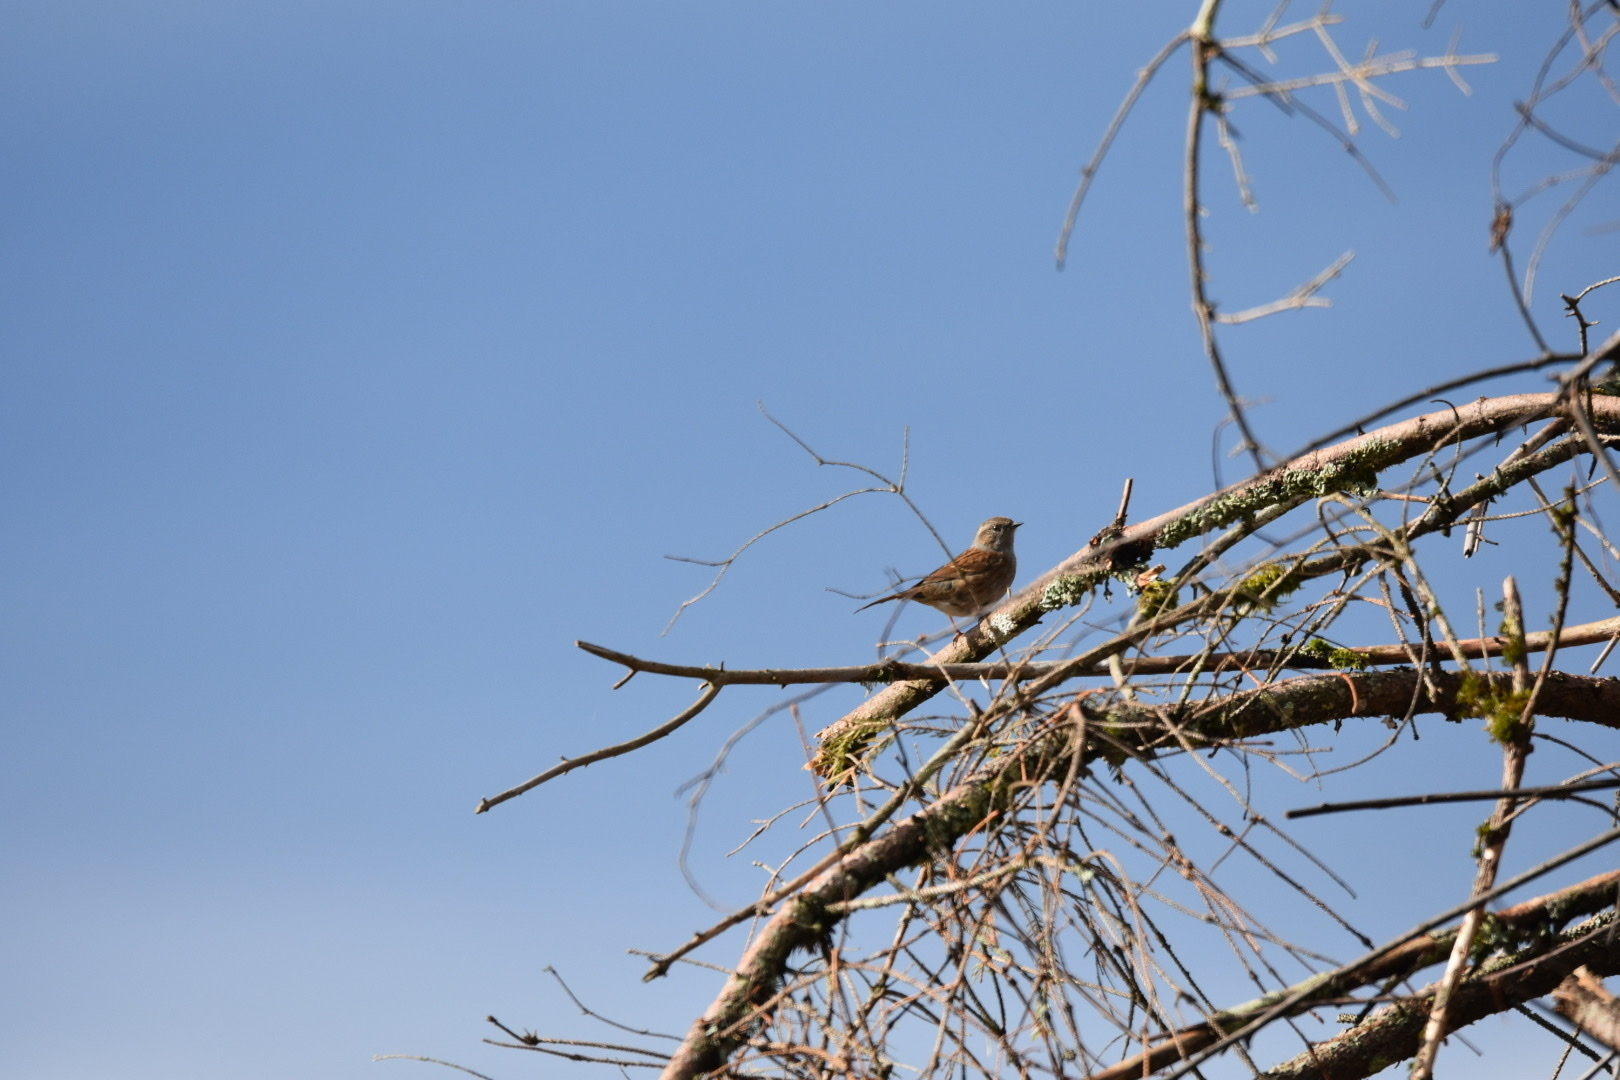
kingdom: Animalia
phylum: Chordata
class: Aves
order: Passeriformes
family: Prunellidae
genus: Prunella
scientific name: Prunella modularis
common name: Dunnock
